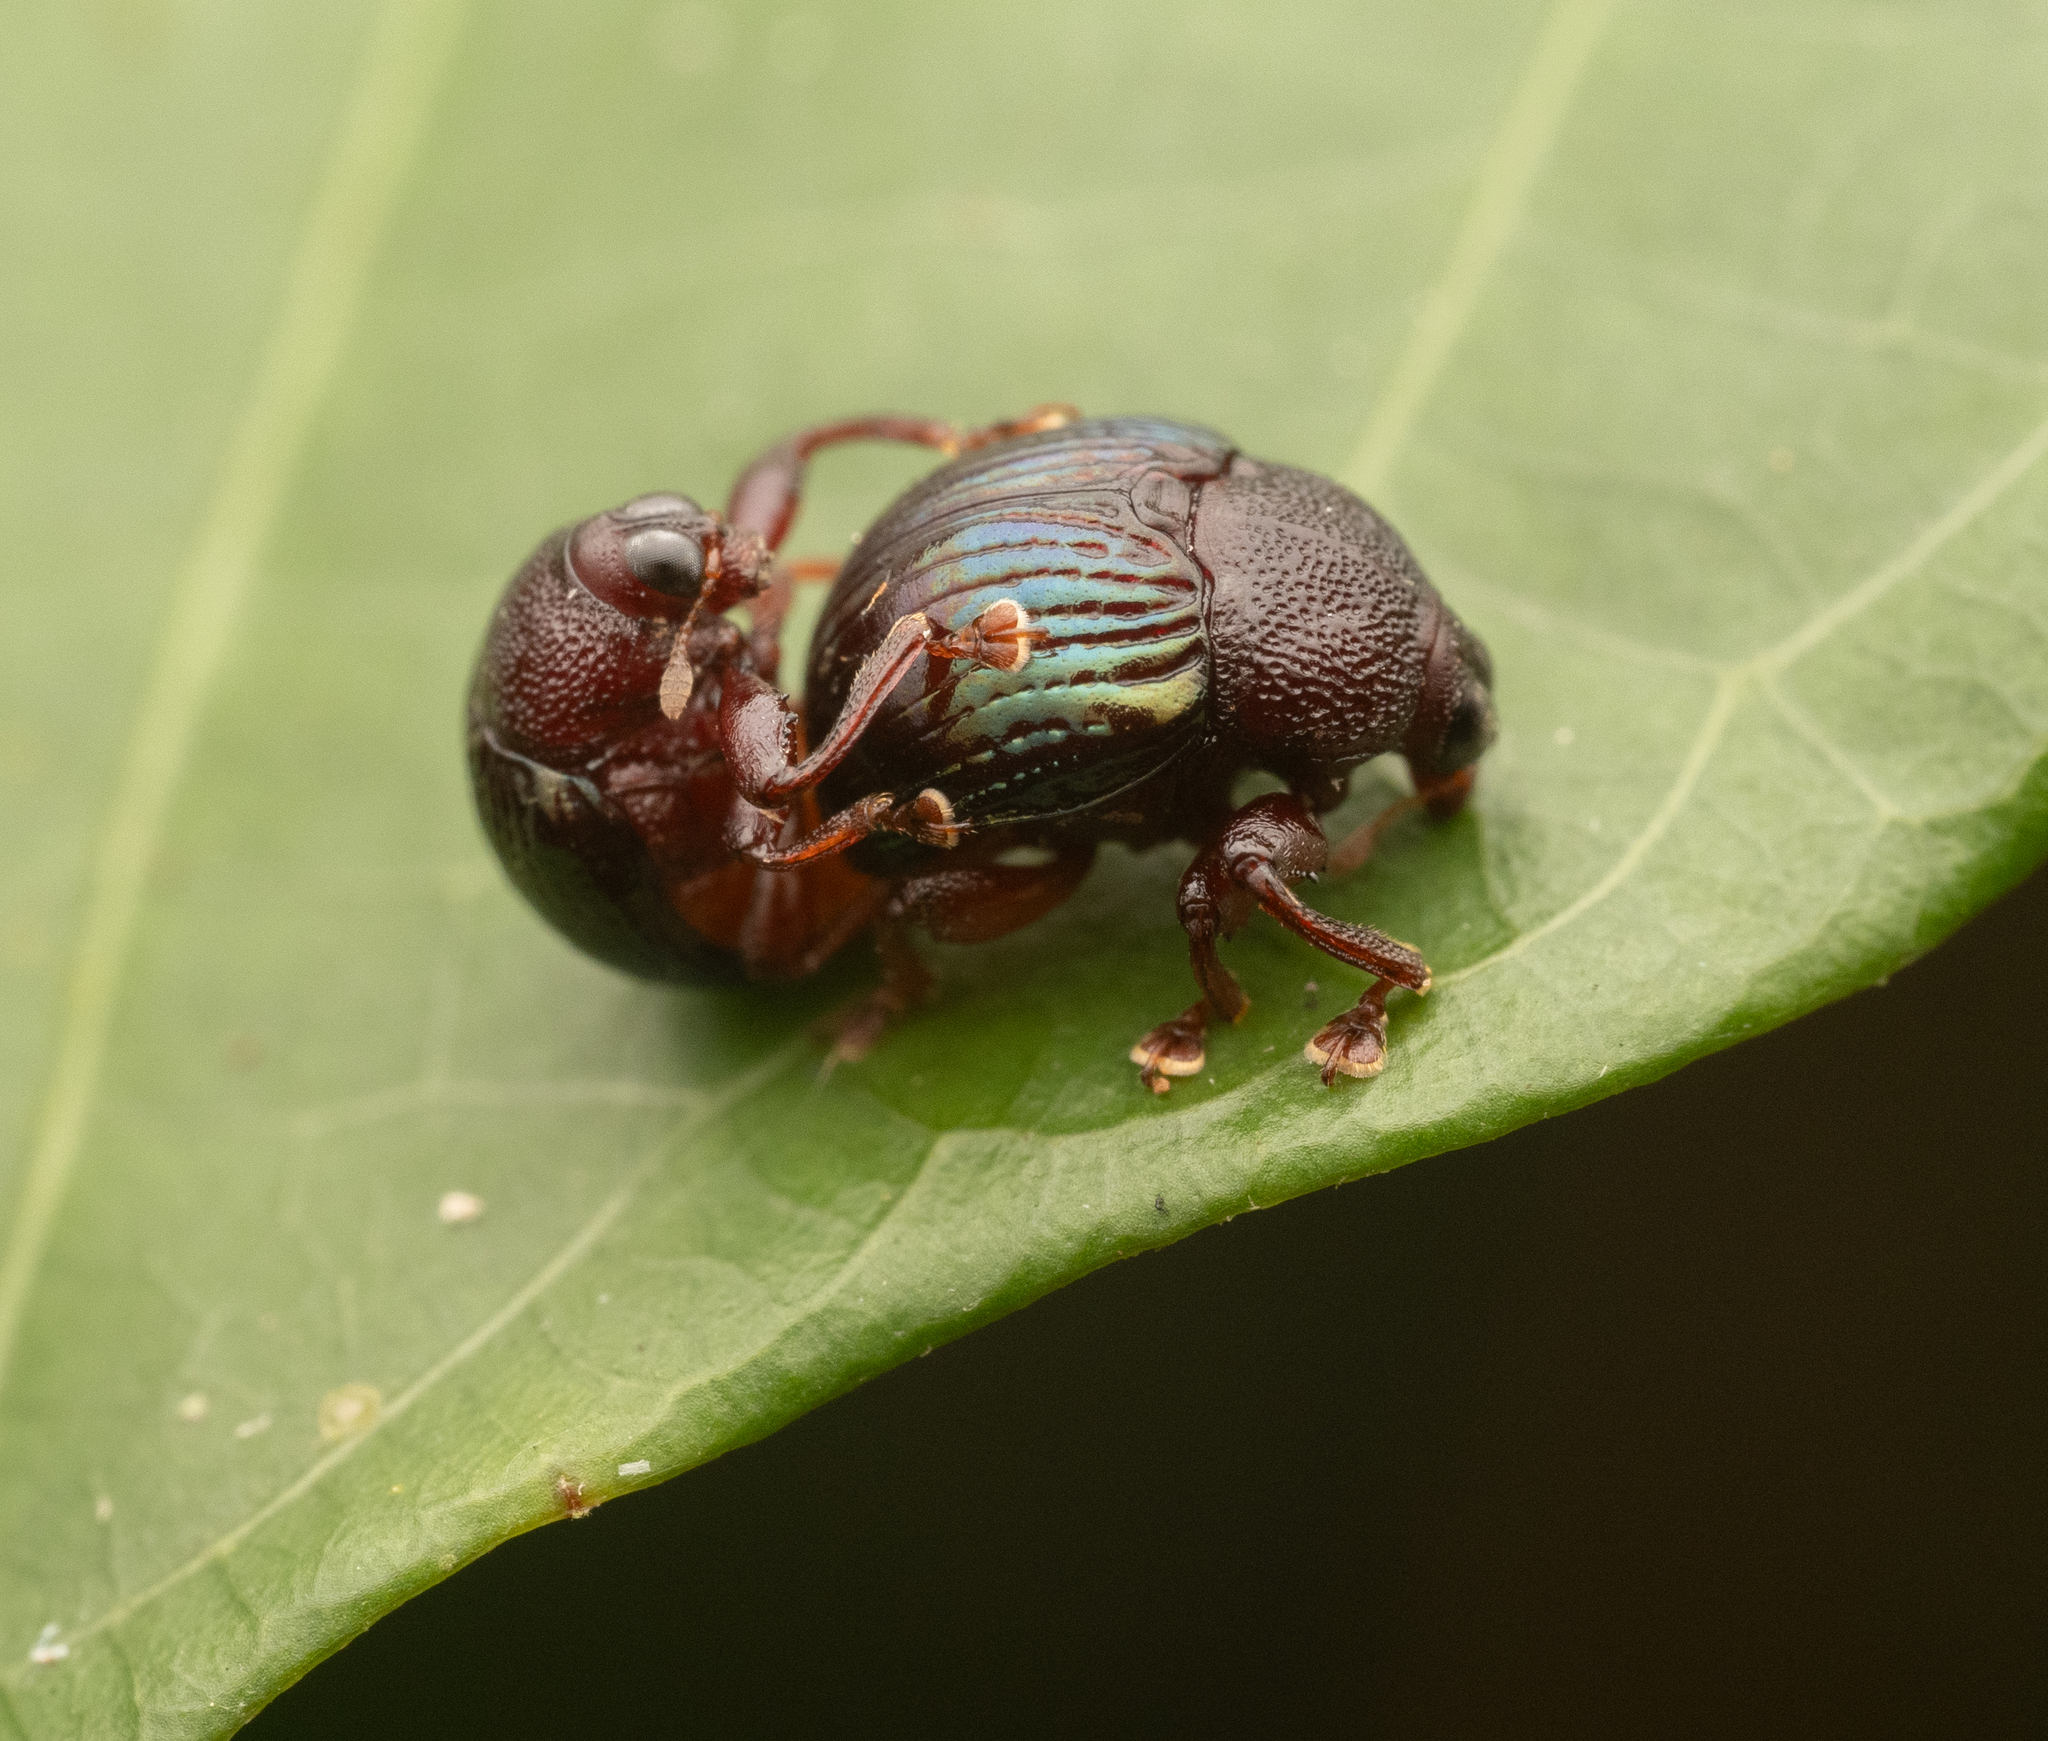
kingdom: Animalia
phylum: Arthropoda
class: Insecta
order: Coleoptera
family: Attelabidae
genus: Hybolabus
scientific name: Hybolabus azuripennis
